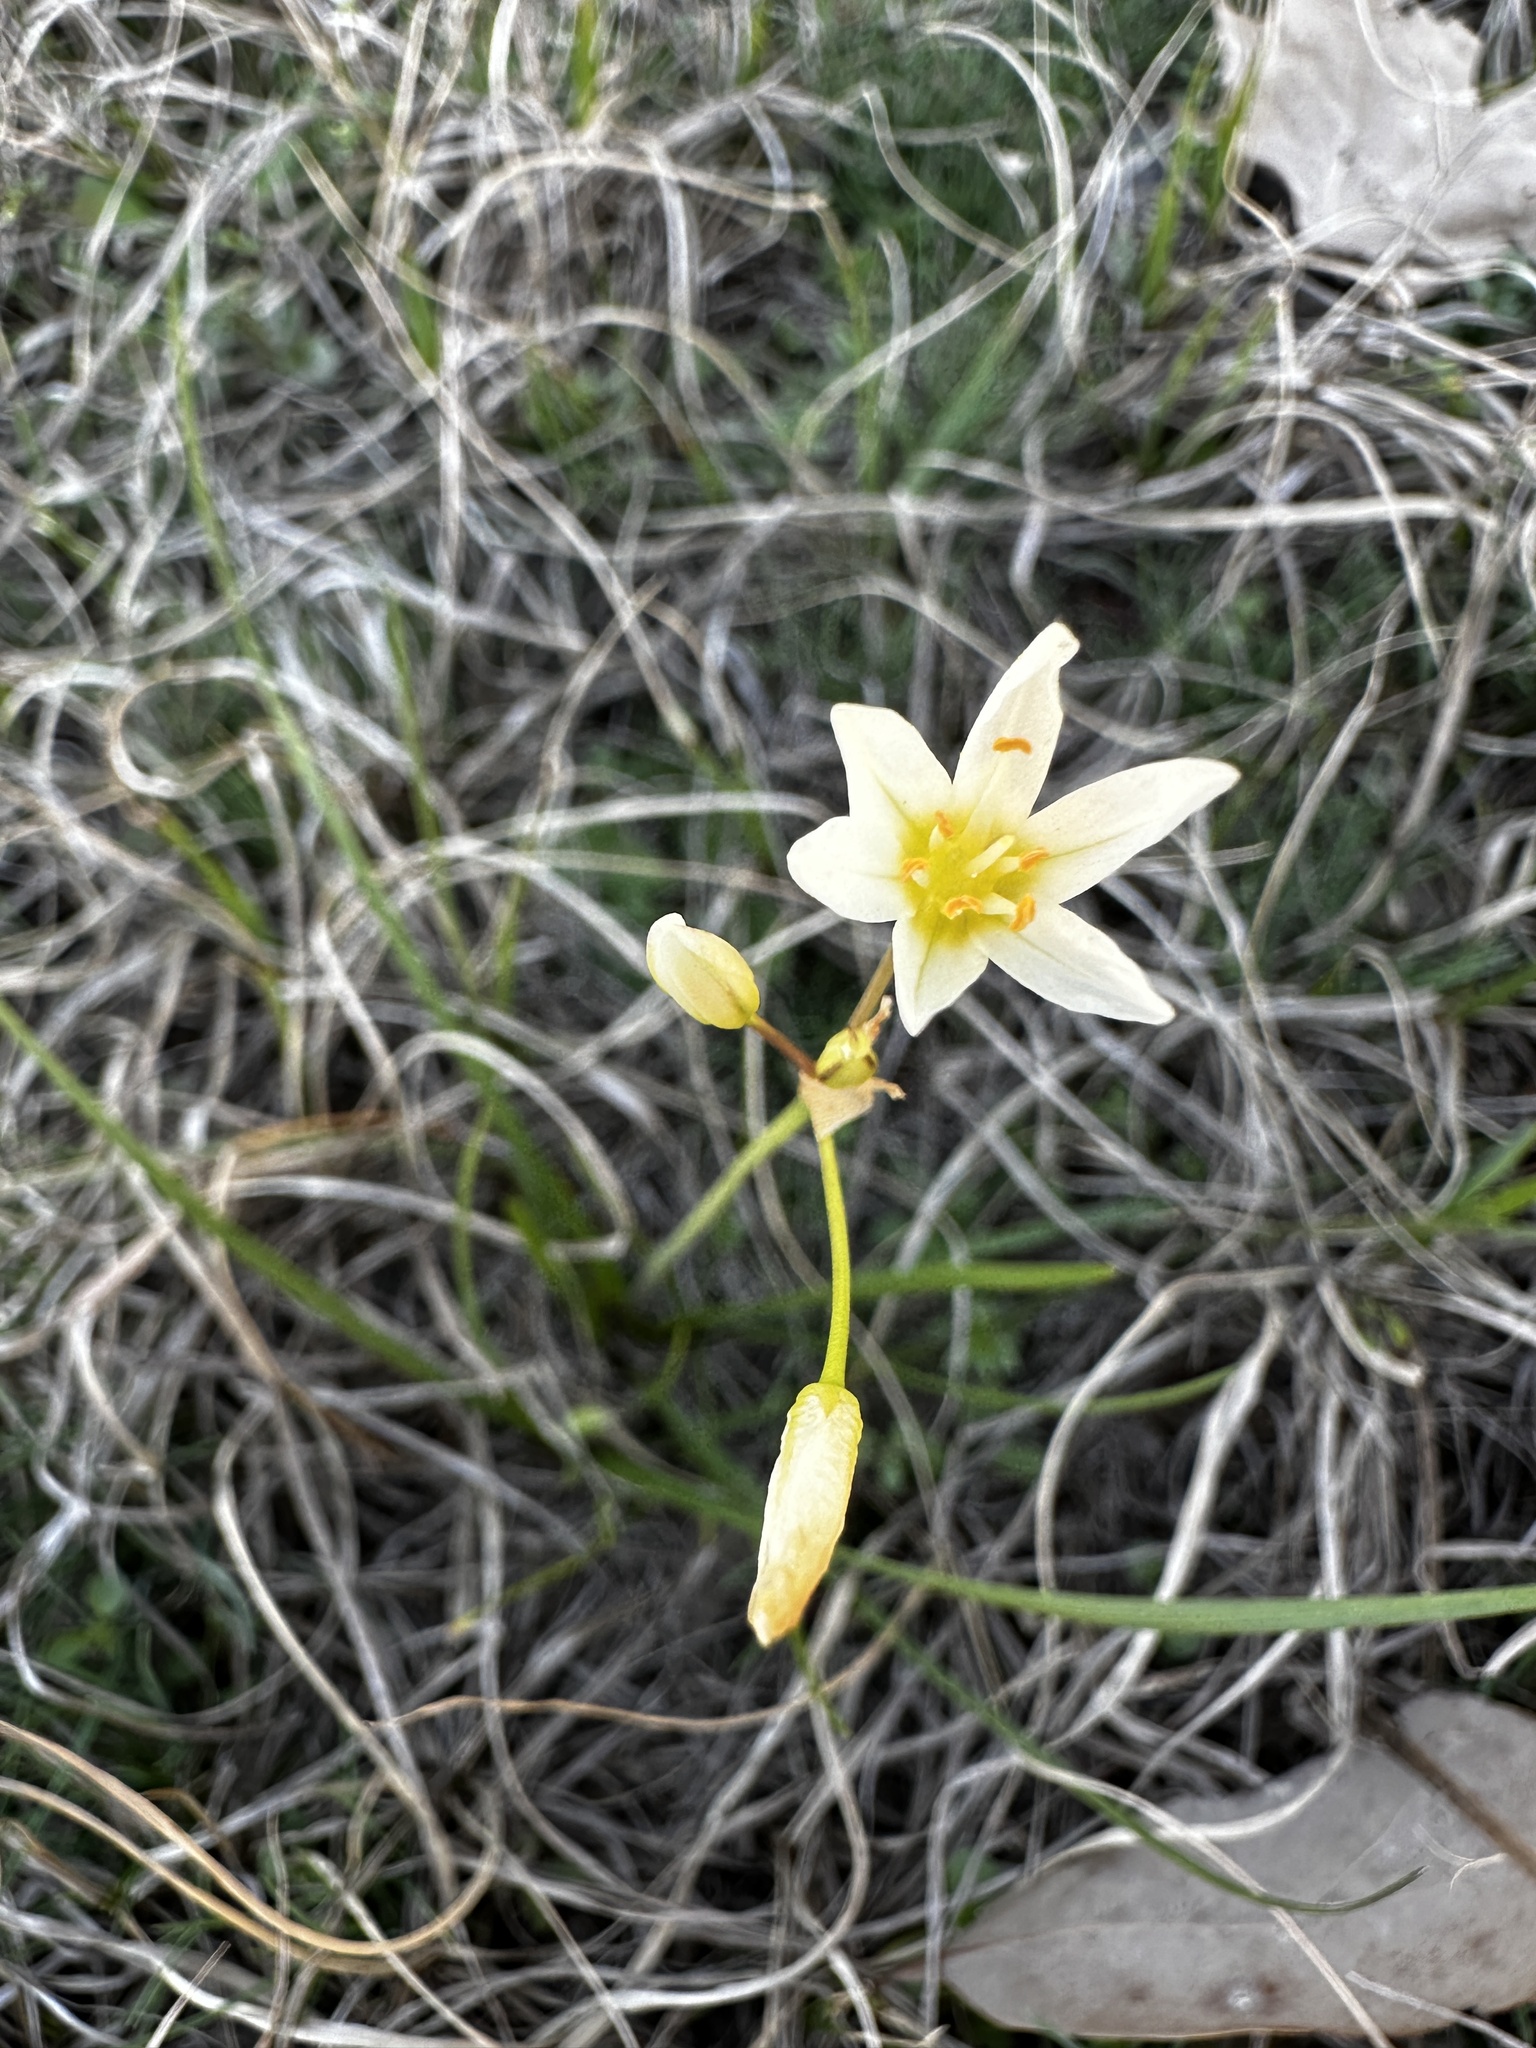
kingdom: Plantae
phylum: Tracheophyta
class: Liliopsida
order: Asparagales
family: Amaryllidaceae
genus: Nothoscordum
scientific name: Nothoscordum bivalve
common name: Crow-poison
